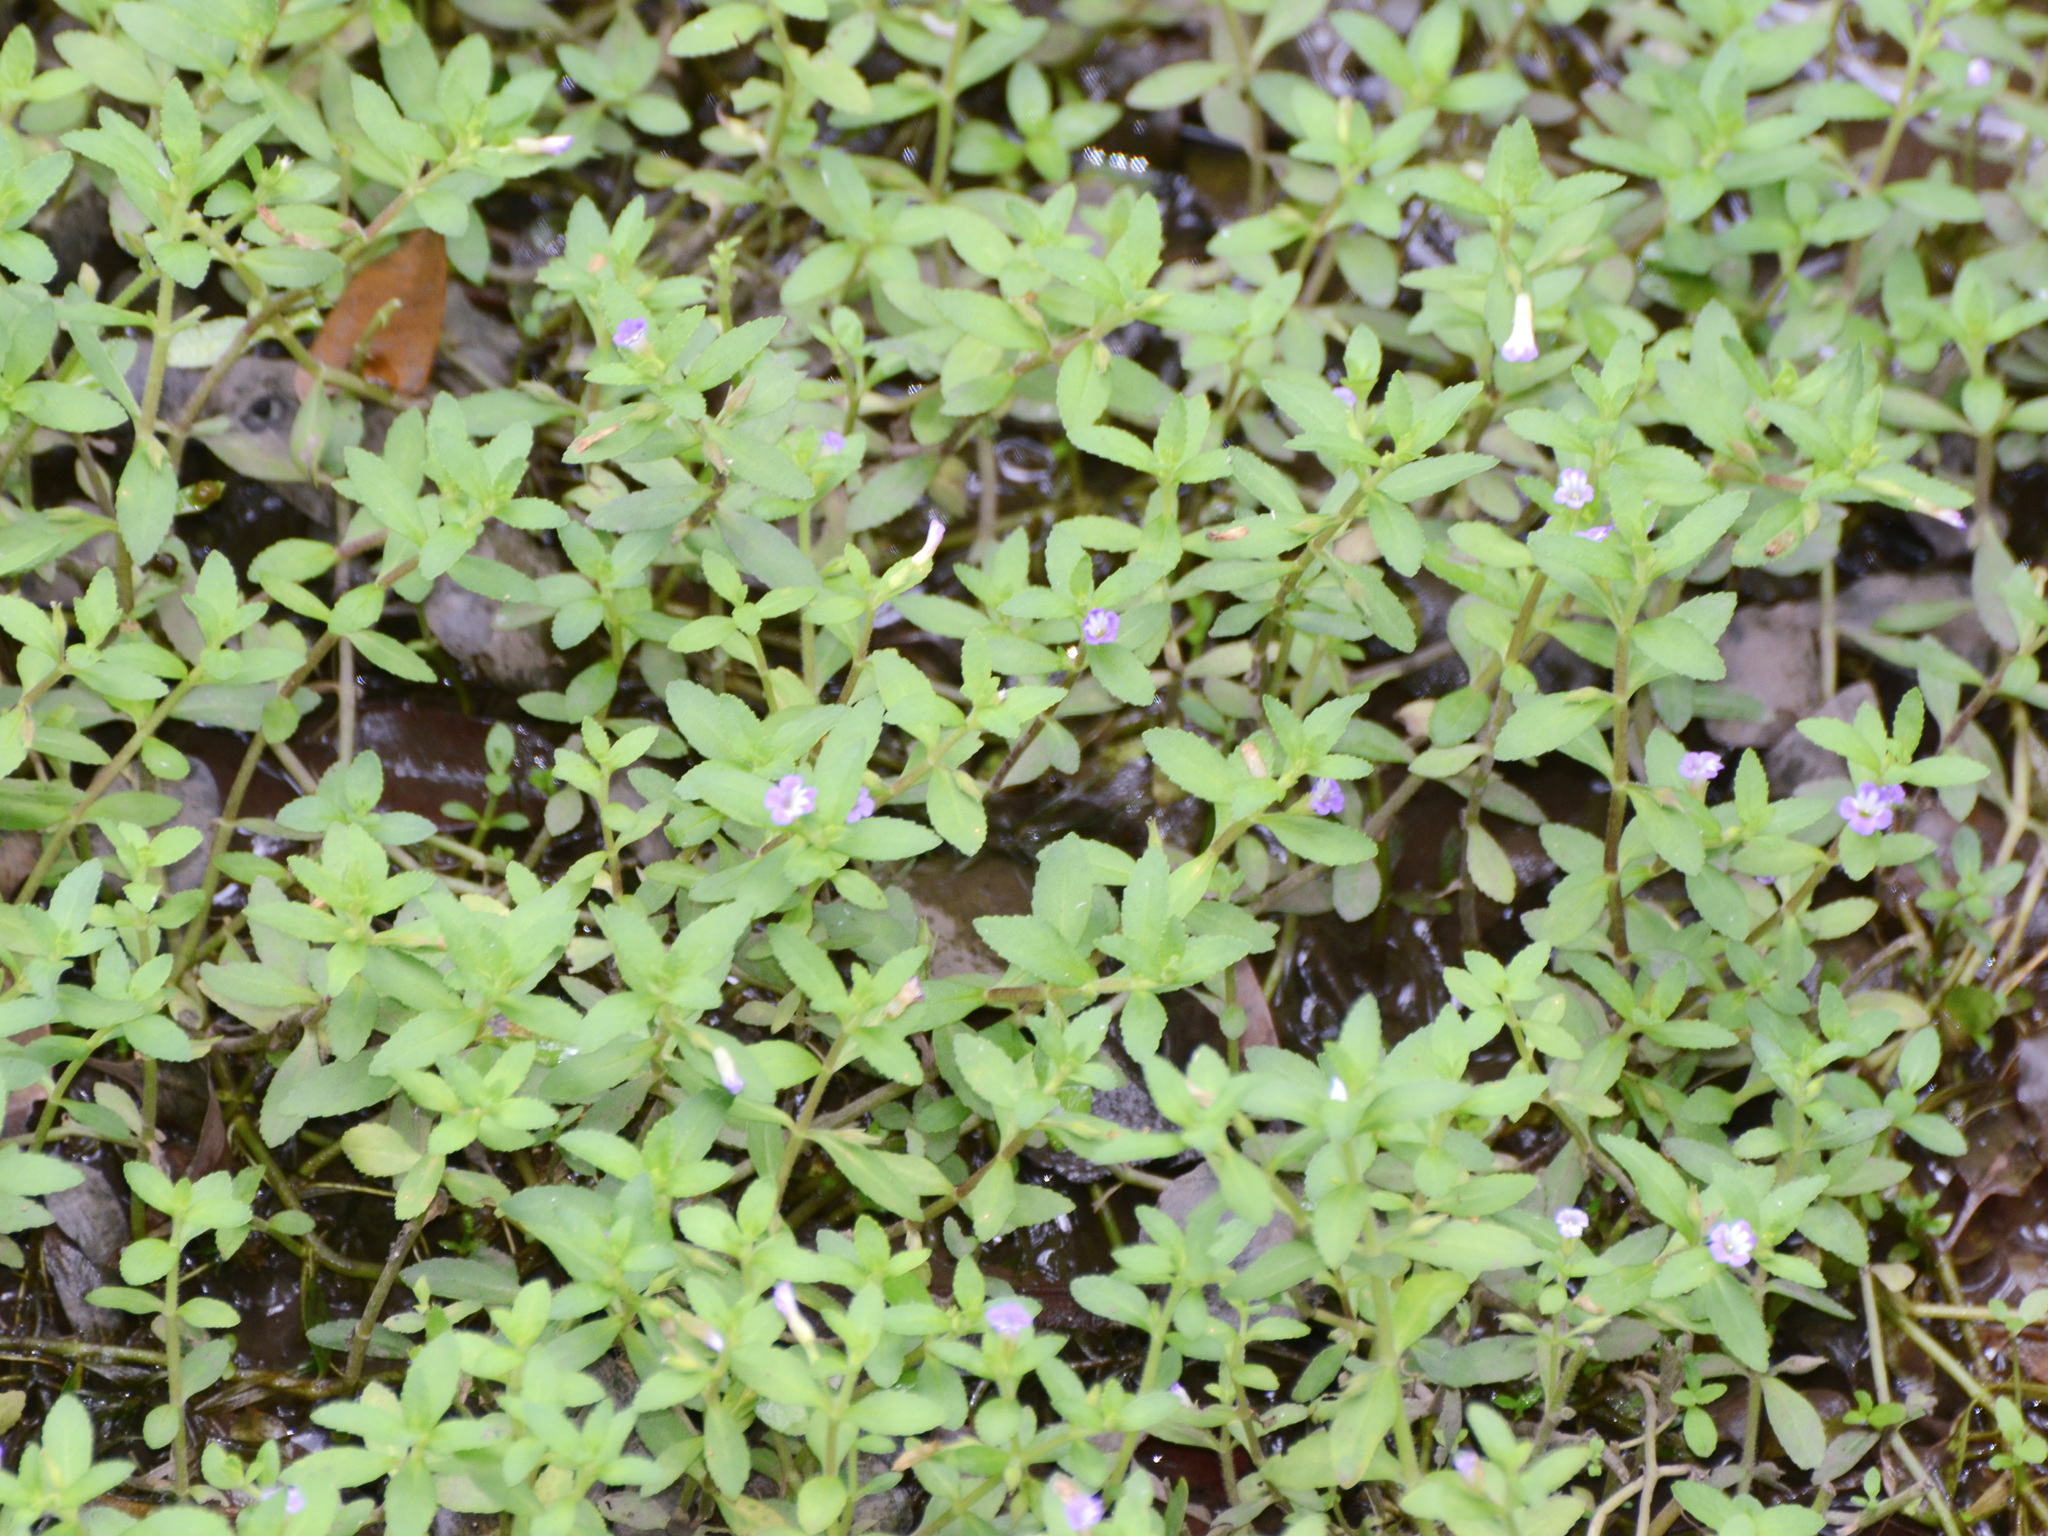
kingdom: Plantae
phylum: Tracheophyta
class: Magnoliopsida
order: Lamiales
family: Plantaginaceae
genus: Limnophila
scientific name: Limnophila chinensis
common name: Finger grass
